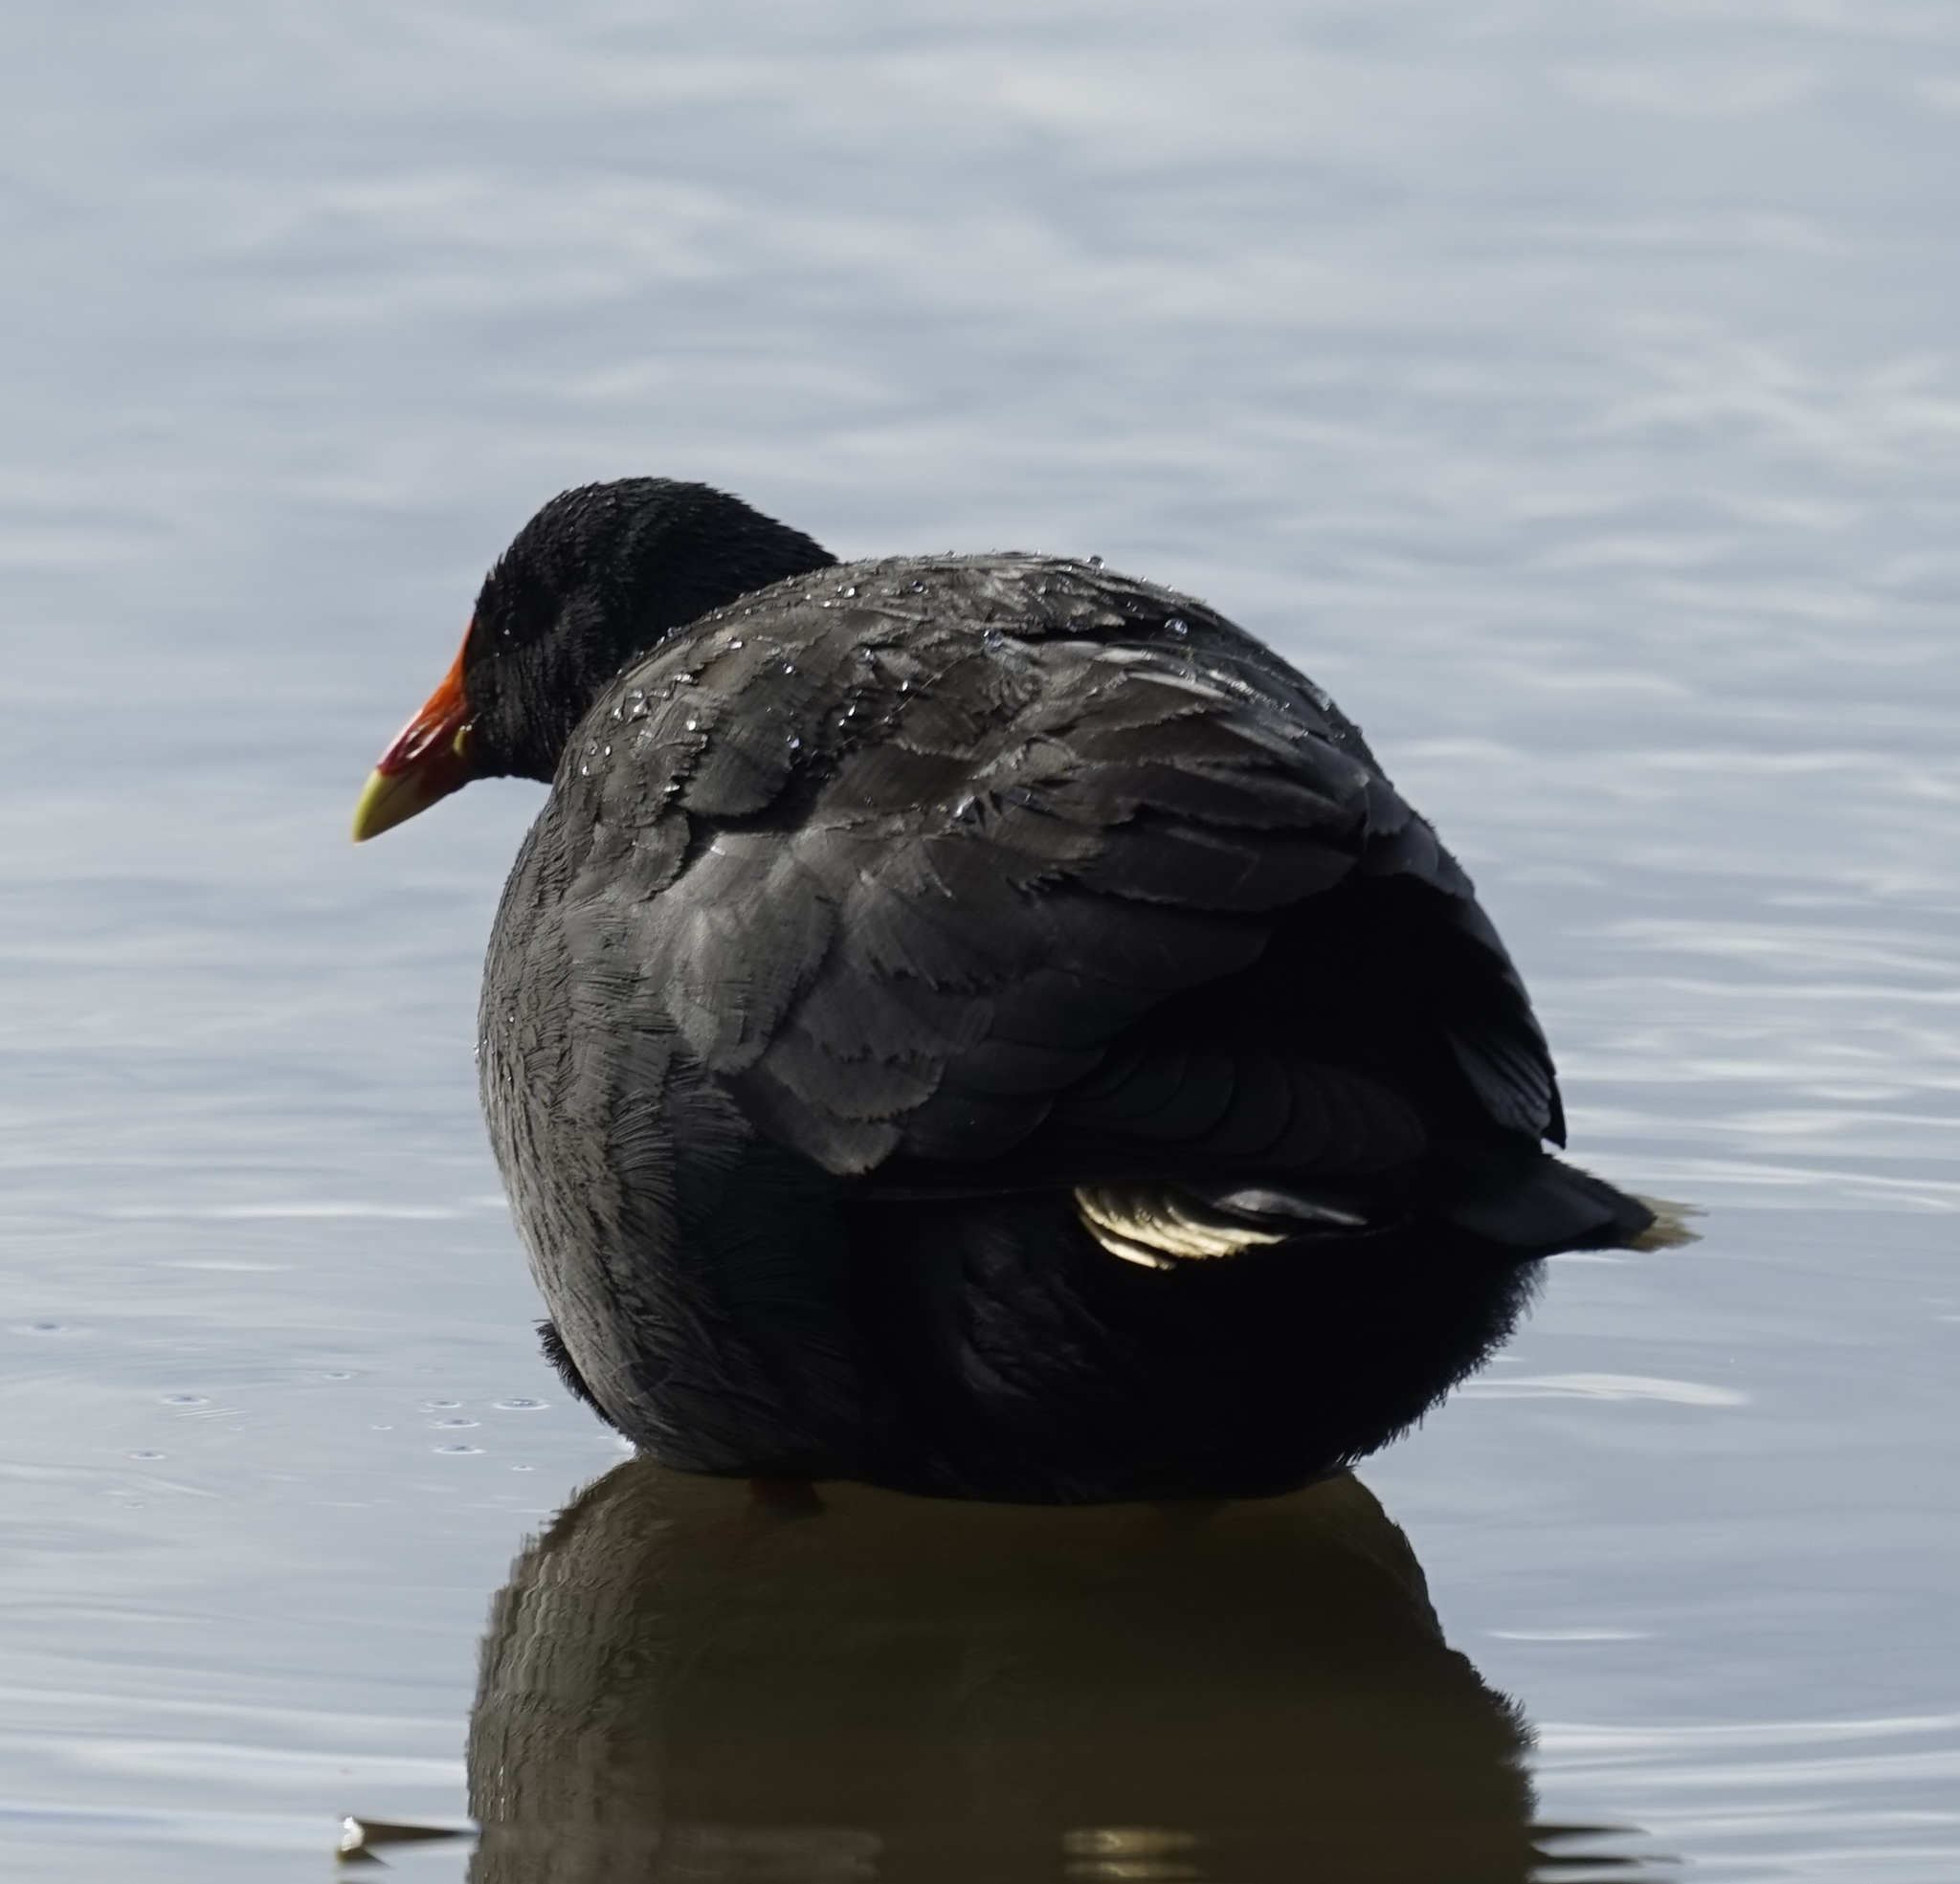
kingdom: Animalia
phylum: Chordata
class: Aves
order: Gruiformes
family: Rallidae
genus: Gallinula
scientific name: Gallinula tenebrosa
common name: Dusky moorhen
